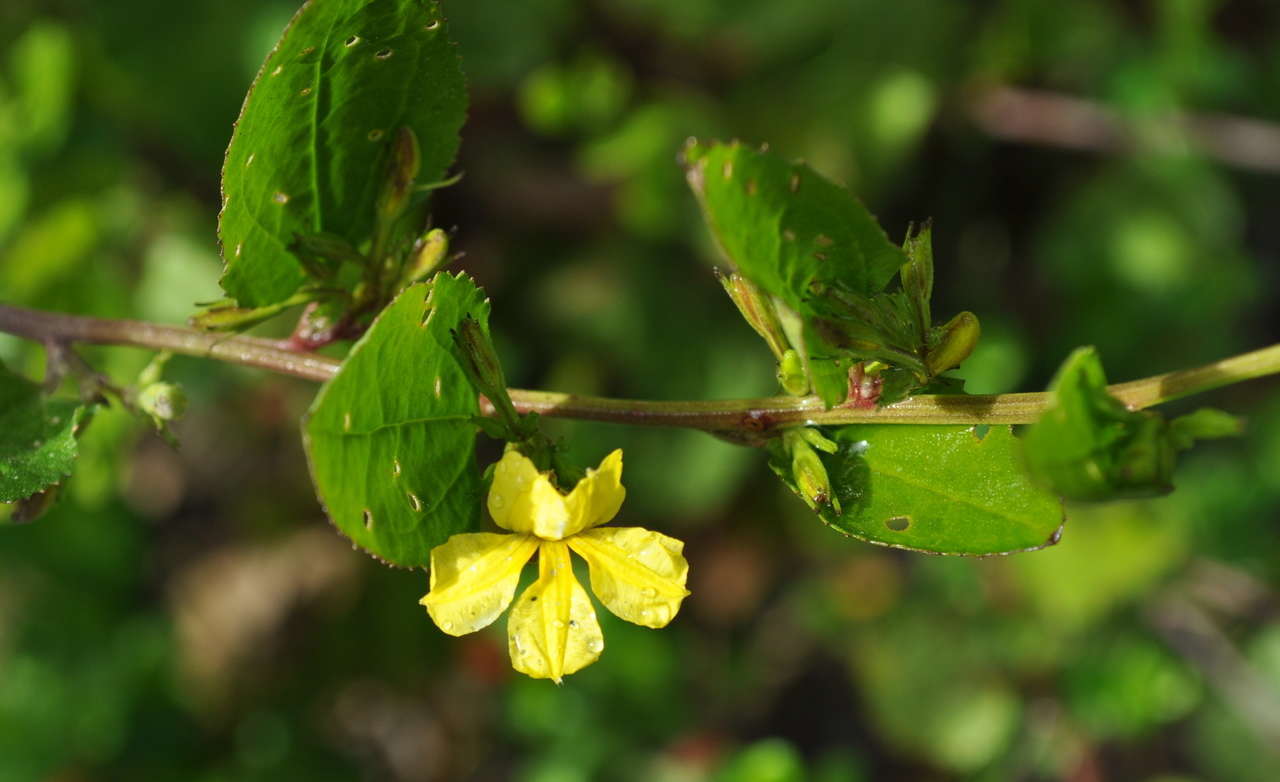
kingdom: Plantae
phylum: Tracheophyta
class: Magnoliopsida
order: Asterales
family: Goodeniaceae
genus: Goodenia
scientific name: Goodenia ovata
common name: Hop goodenia
